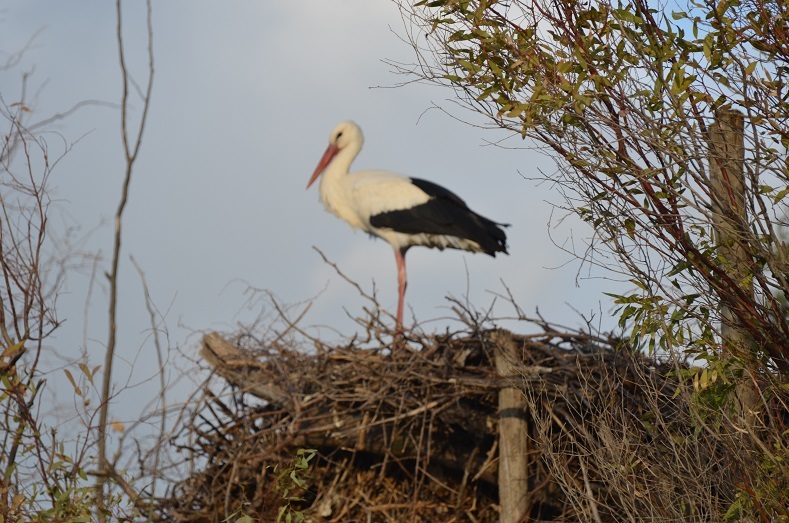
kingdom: Animalia
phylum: Chordata
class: Aves
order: Ciconiiformes
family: Ciconiidae
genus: Ciconia
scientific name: Ciconia ciconia
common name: White stork
